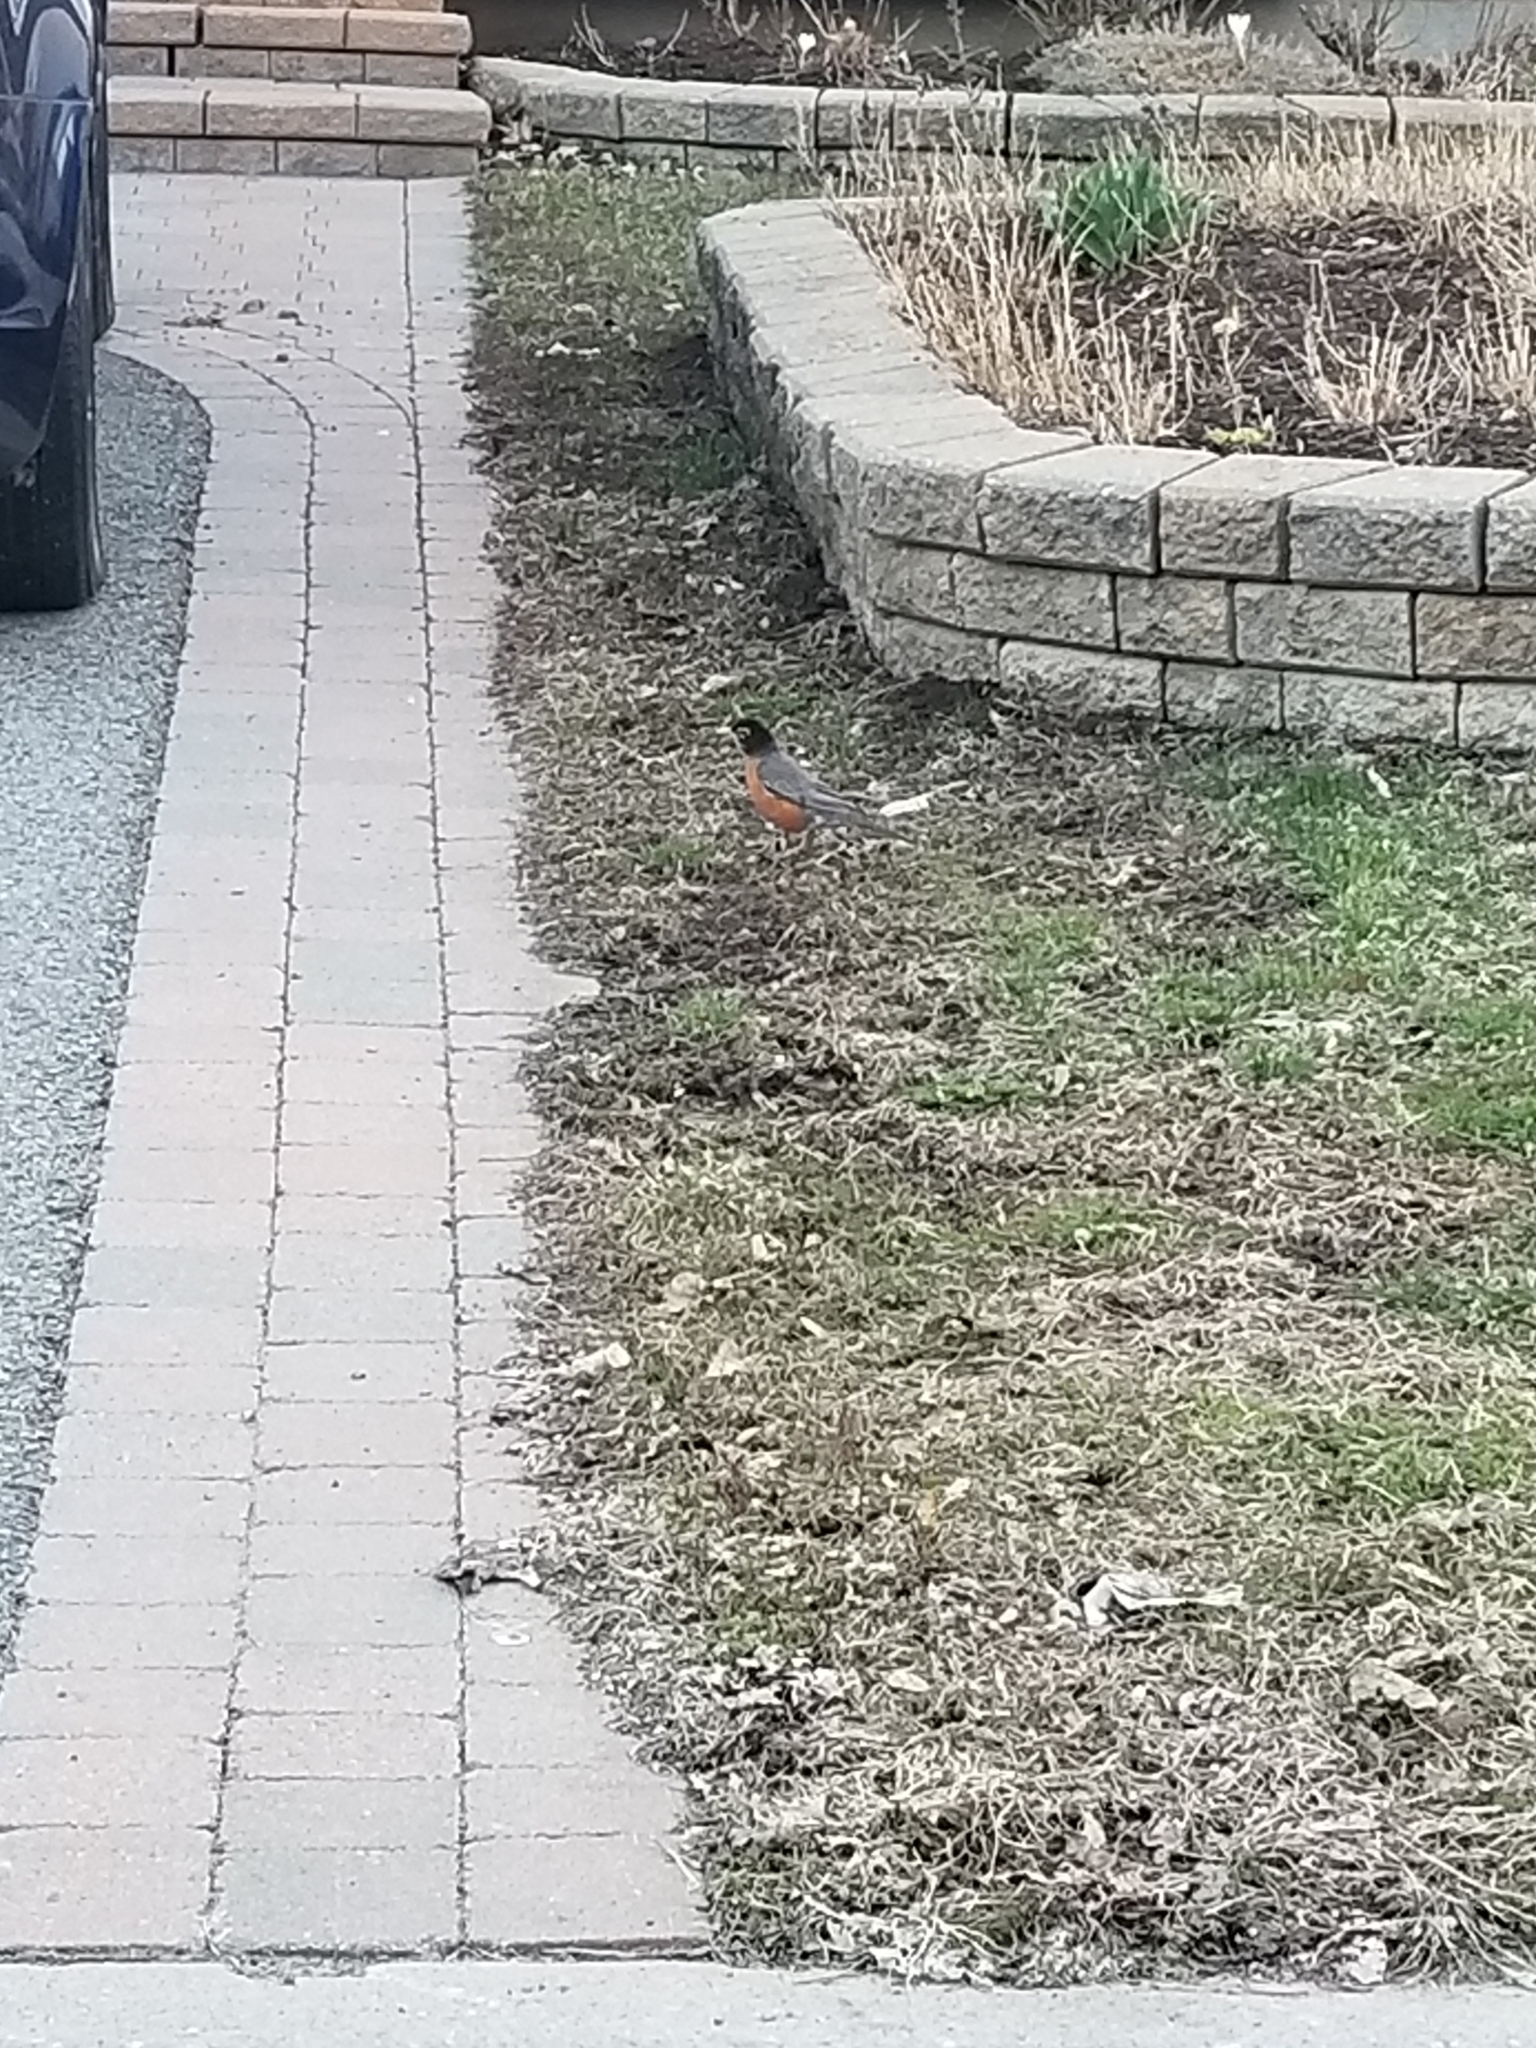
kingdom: Animalia
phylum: Chordata
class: Aves
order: Passeriformes
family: Turdidae
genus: Turdus
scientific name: Turdus migratorius
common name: American robin
